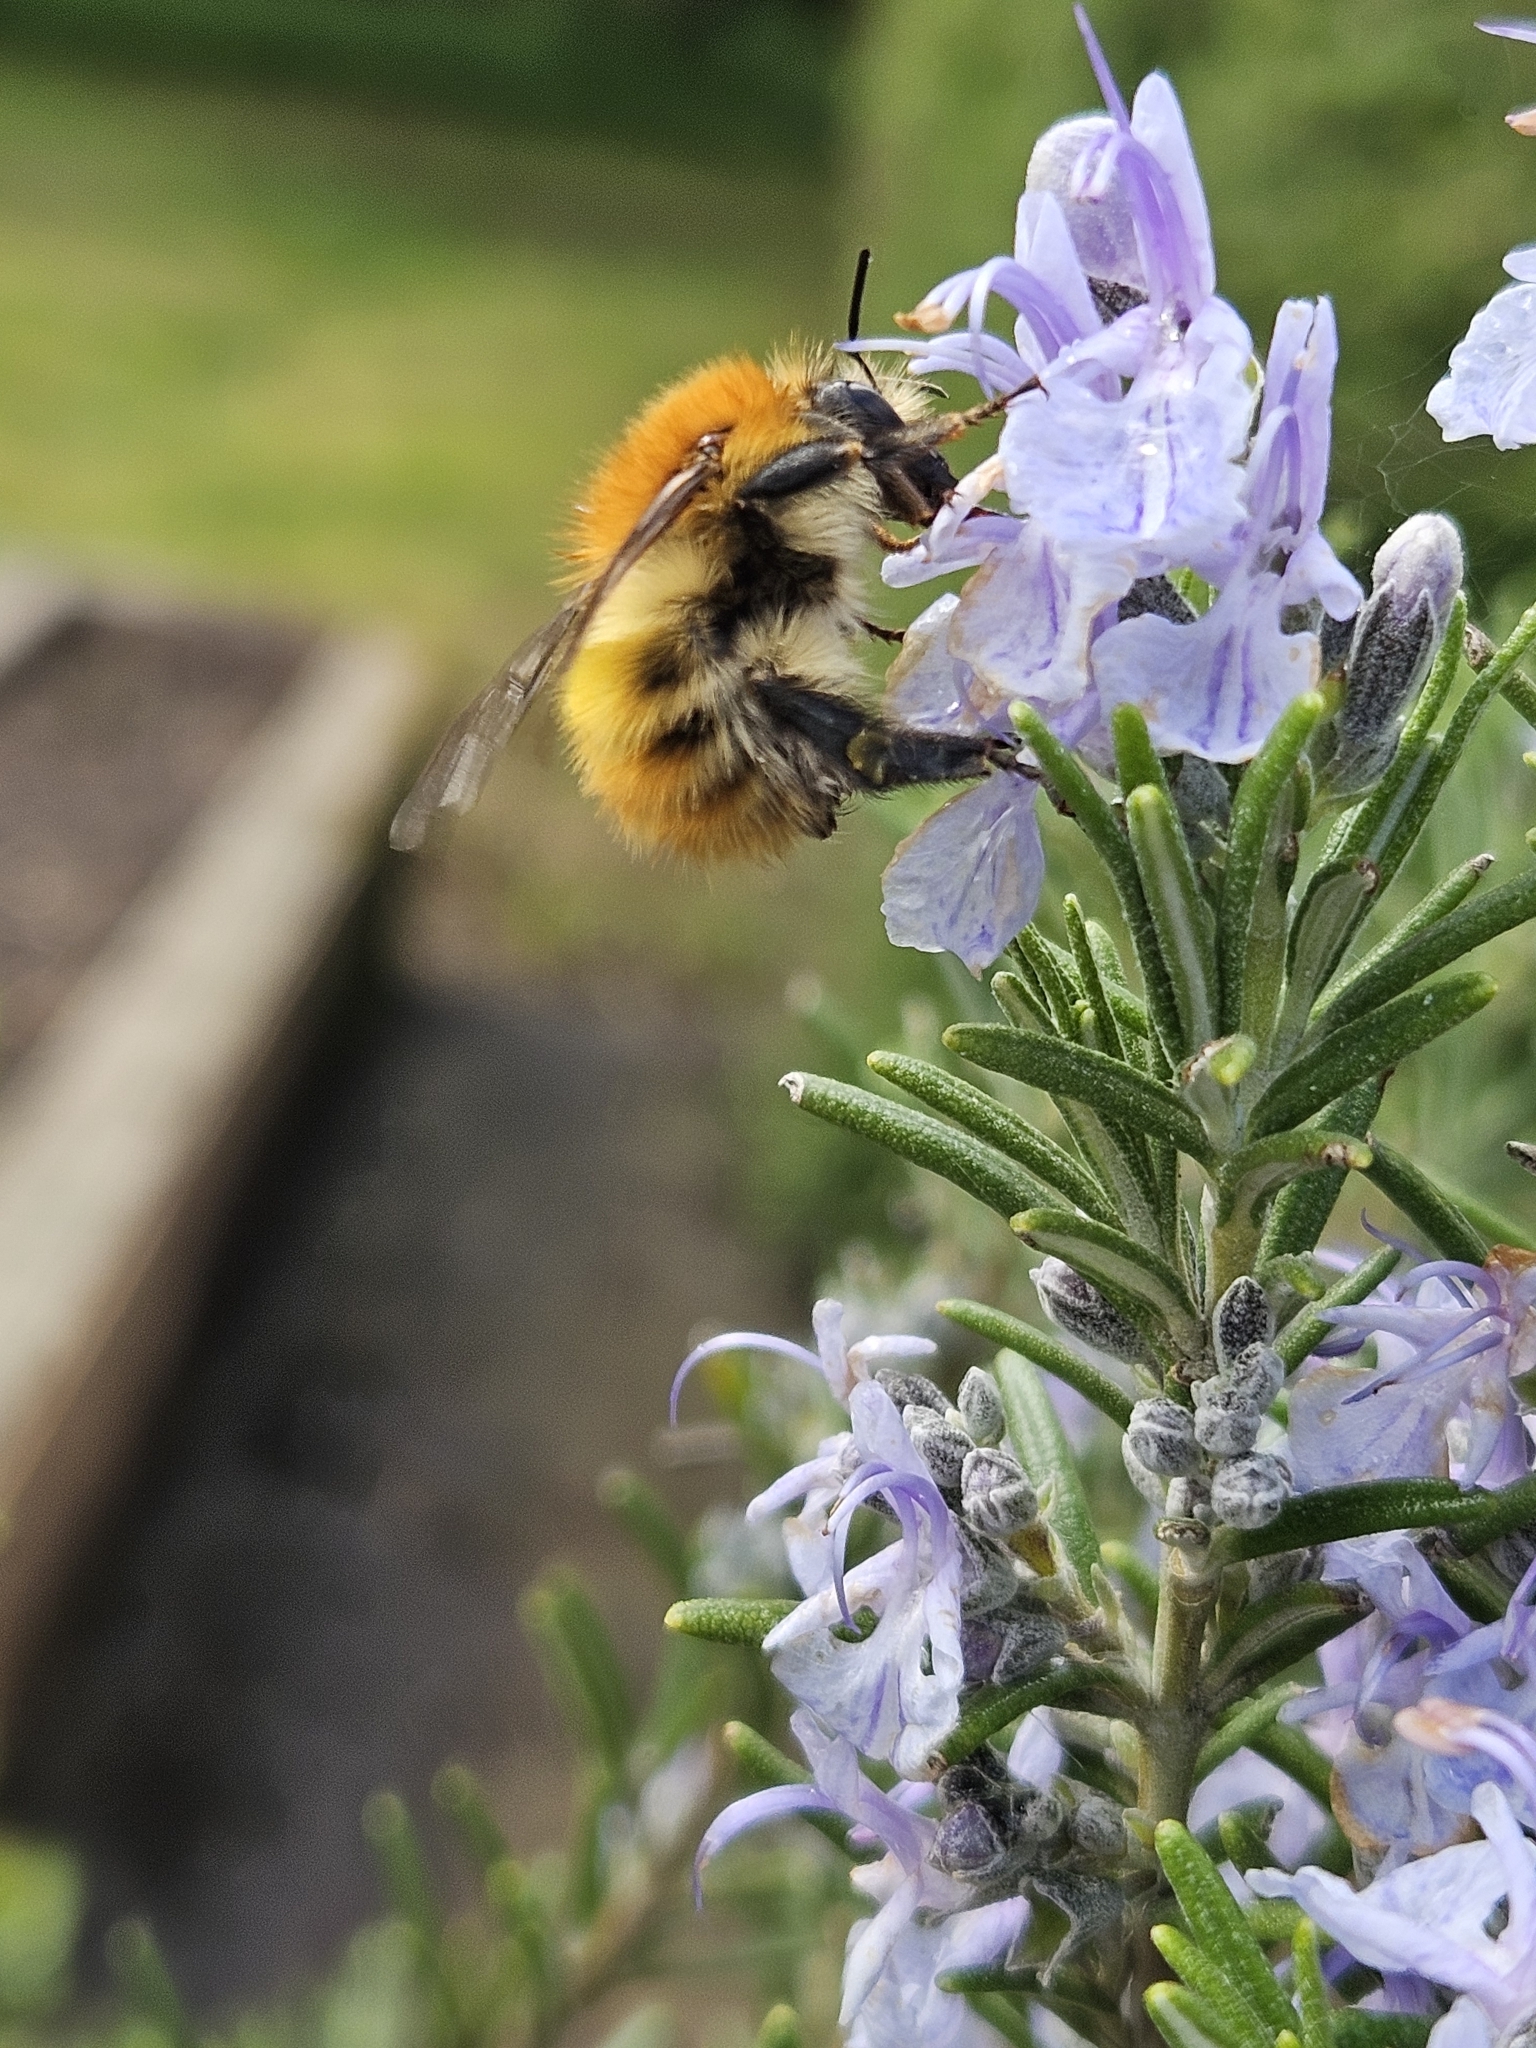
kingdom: Animalia
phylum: Arthropoda
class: Insecta
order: Hymenoptera
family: Apidae
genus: Bombus
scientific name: Bombus pascuorum
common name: Common carder bee
